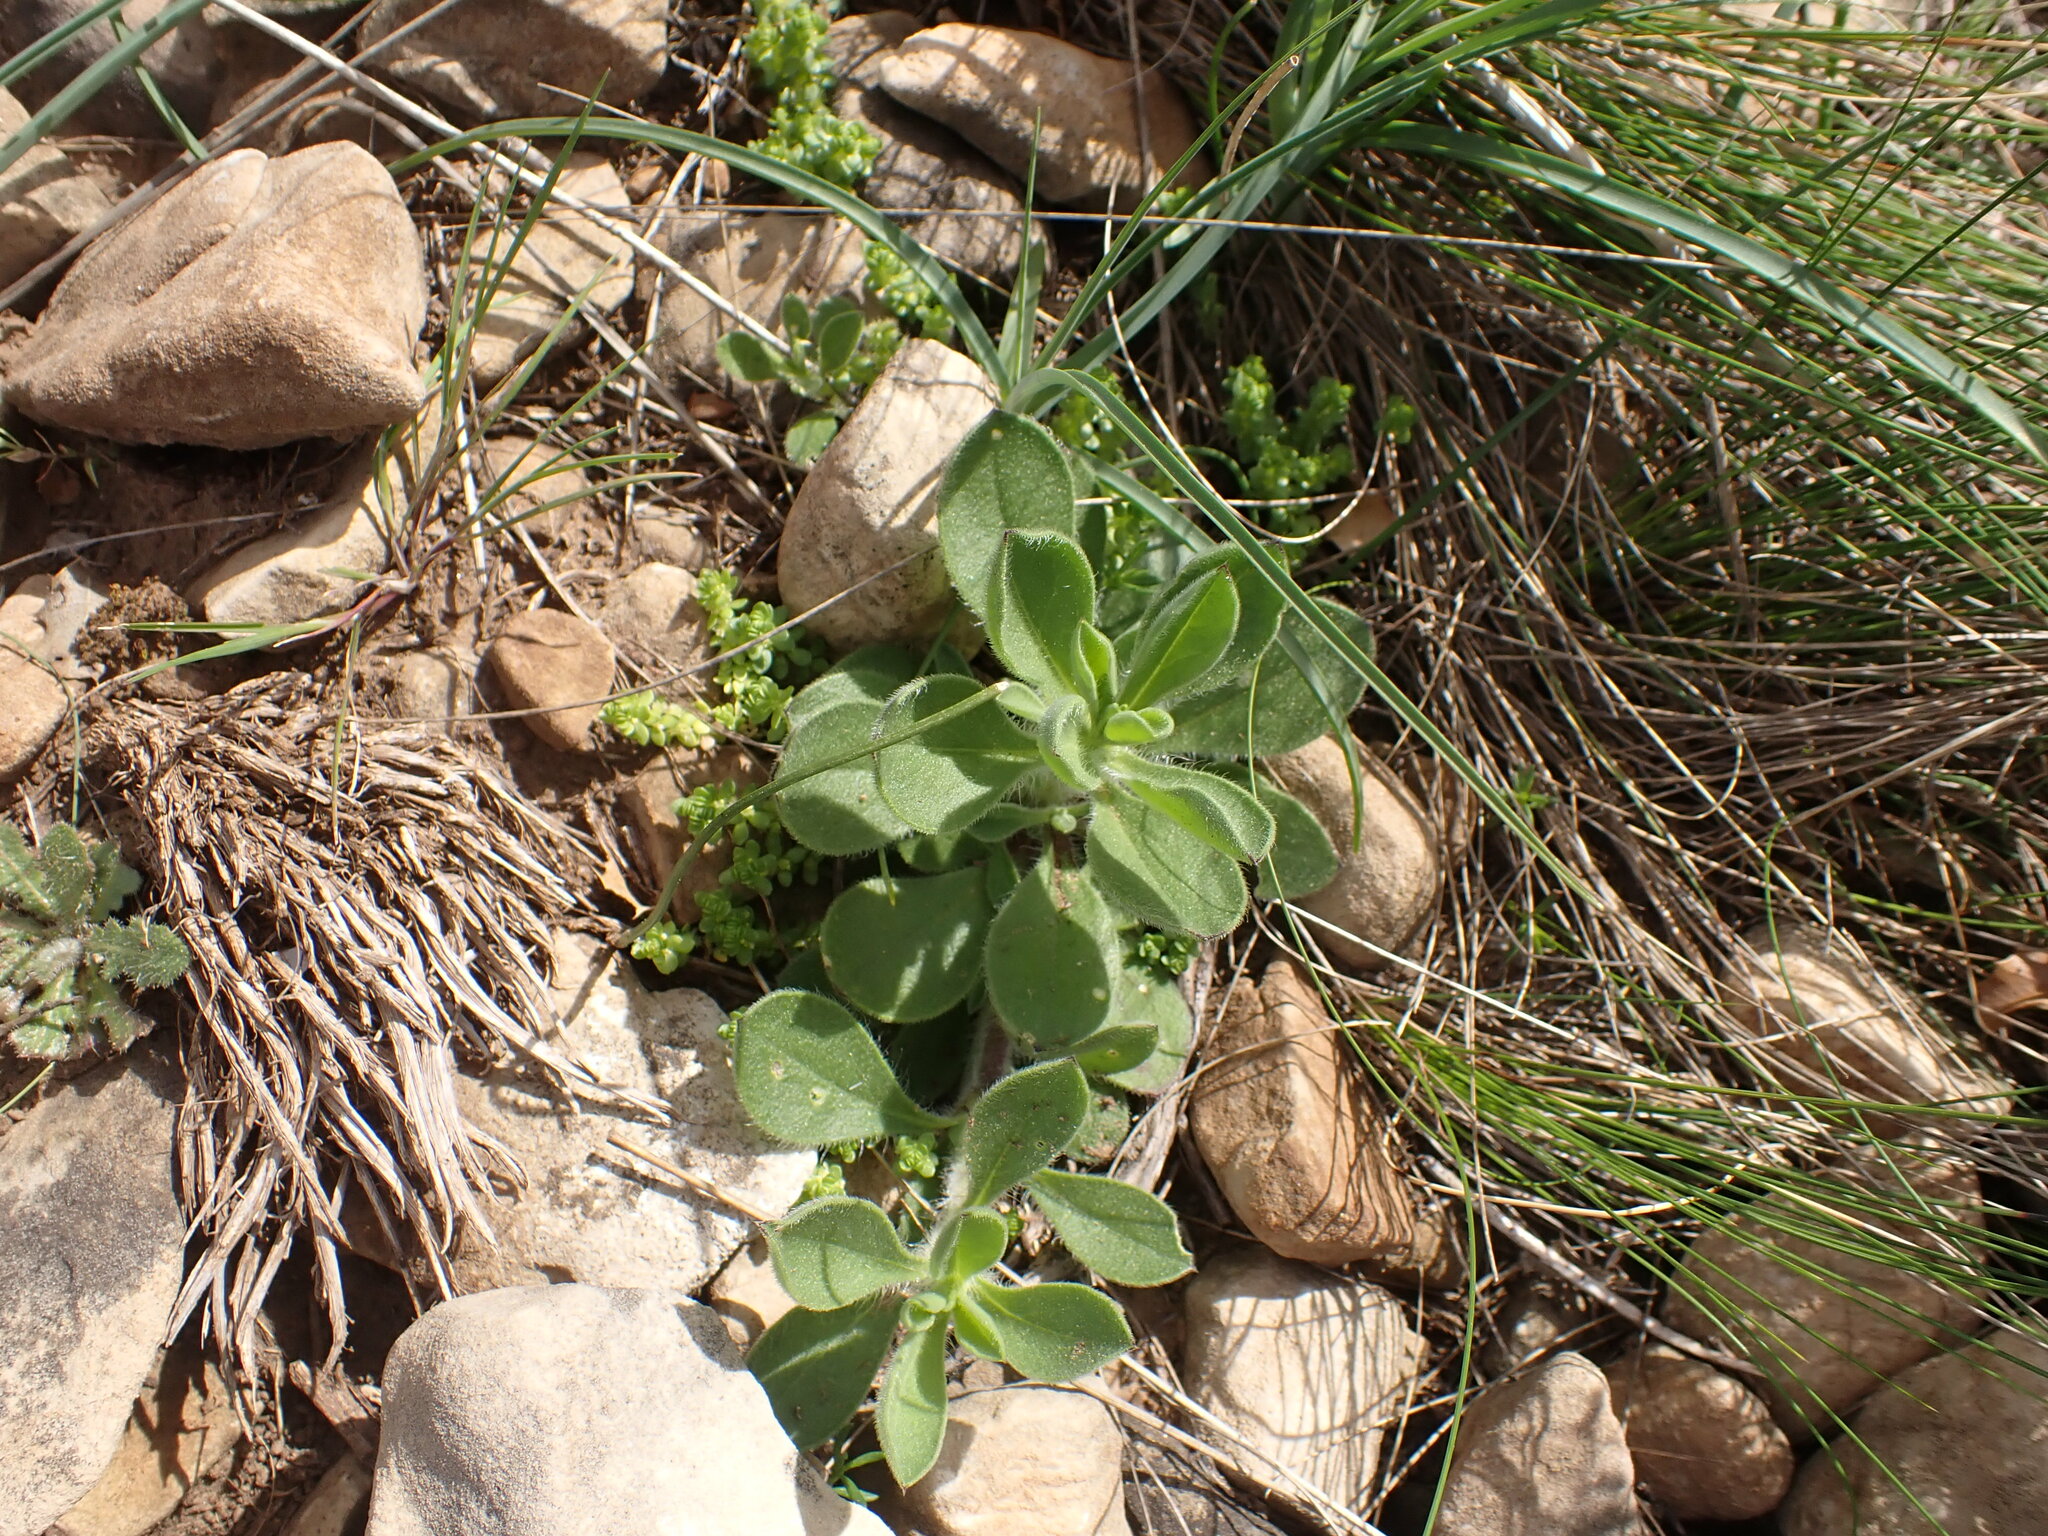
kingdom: Plantae
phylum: Tracheophyta
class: Magnoliopsida
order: Caryophyllales
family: Caryophyllaceae
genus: Silene
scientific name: Silene nocturna
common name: Mediterranean catchfly
